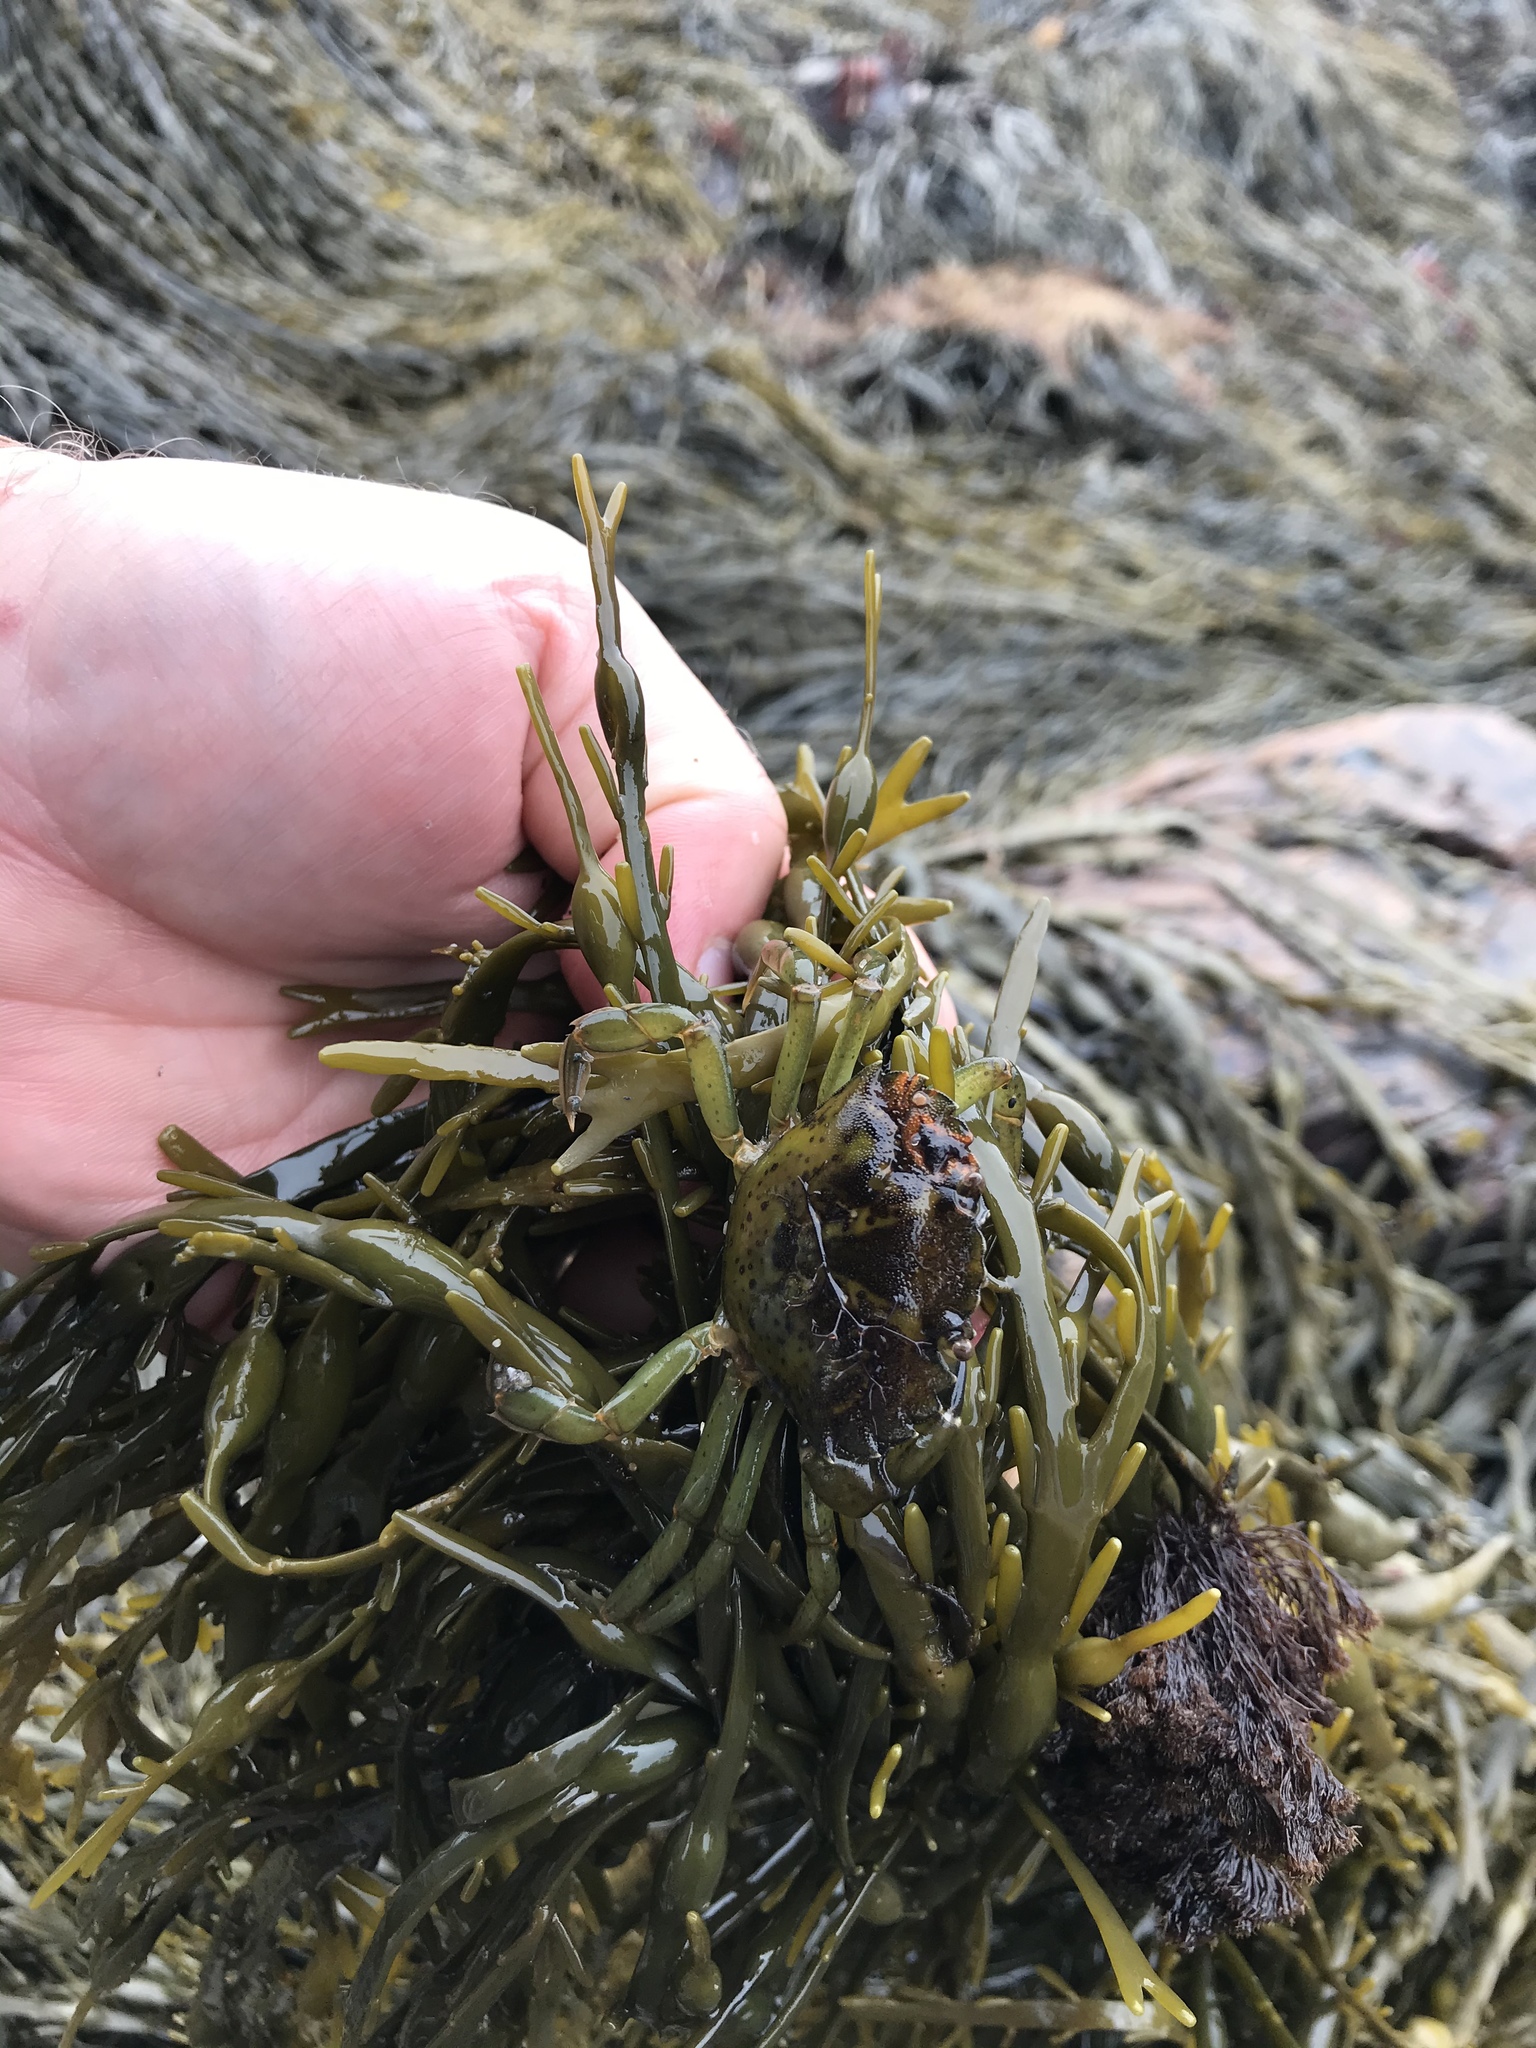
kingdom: Animalia
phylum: Arthropoda
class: Malacostraca
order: Decapoda
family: Carcinidae
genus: Carcinus
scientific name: Carcinus maenas
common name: European green crab
